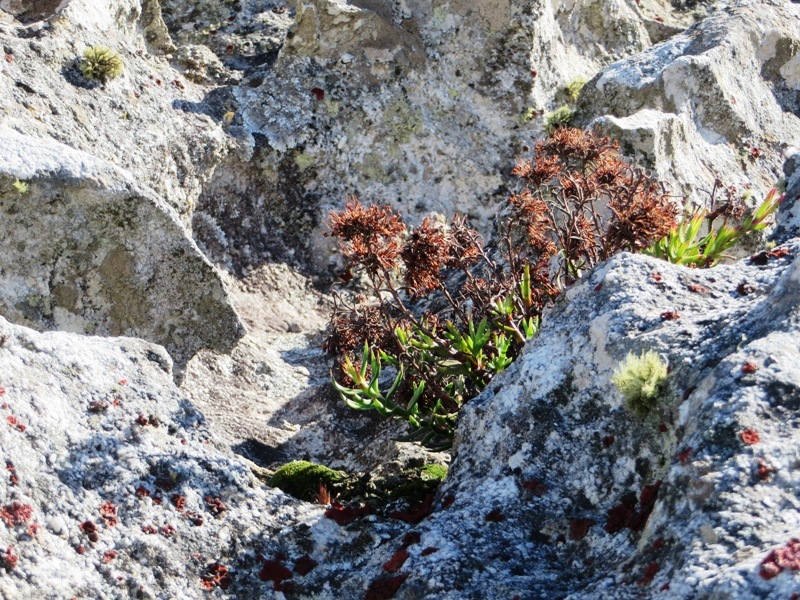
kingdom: Plantae
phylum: Tracheophyta
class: Magnoliopsida
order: Saxifragales
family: Crassulaceae
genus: Crassula
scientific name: Crassula fascicularis
